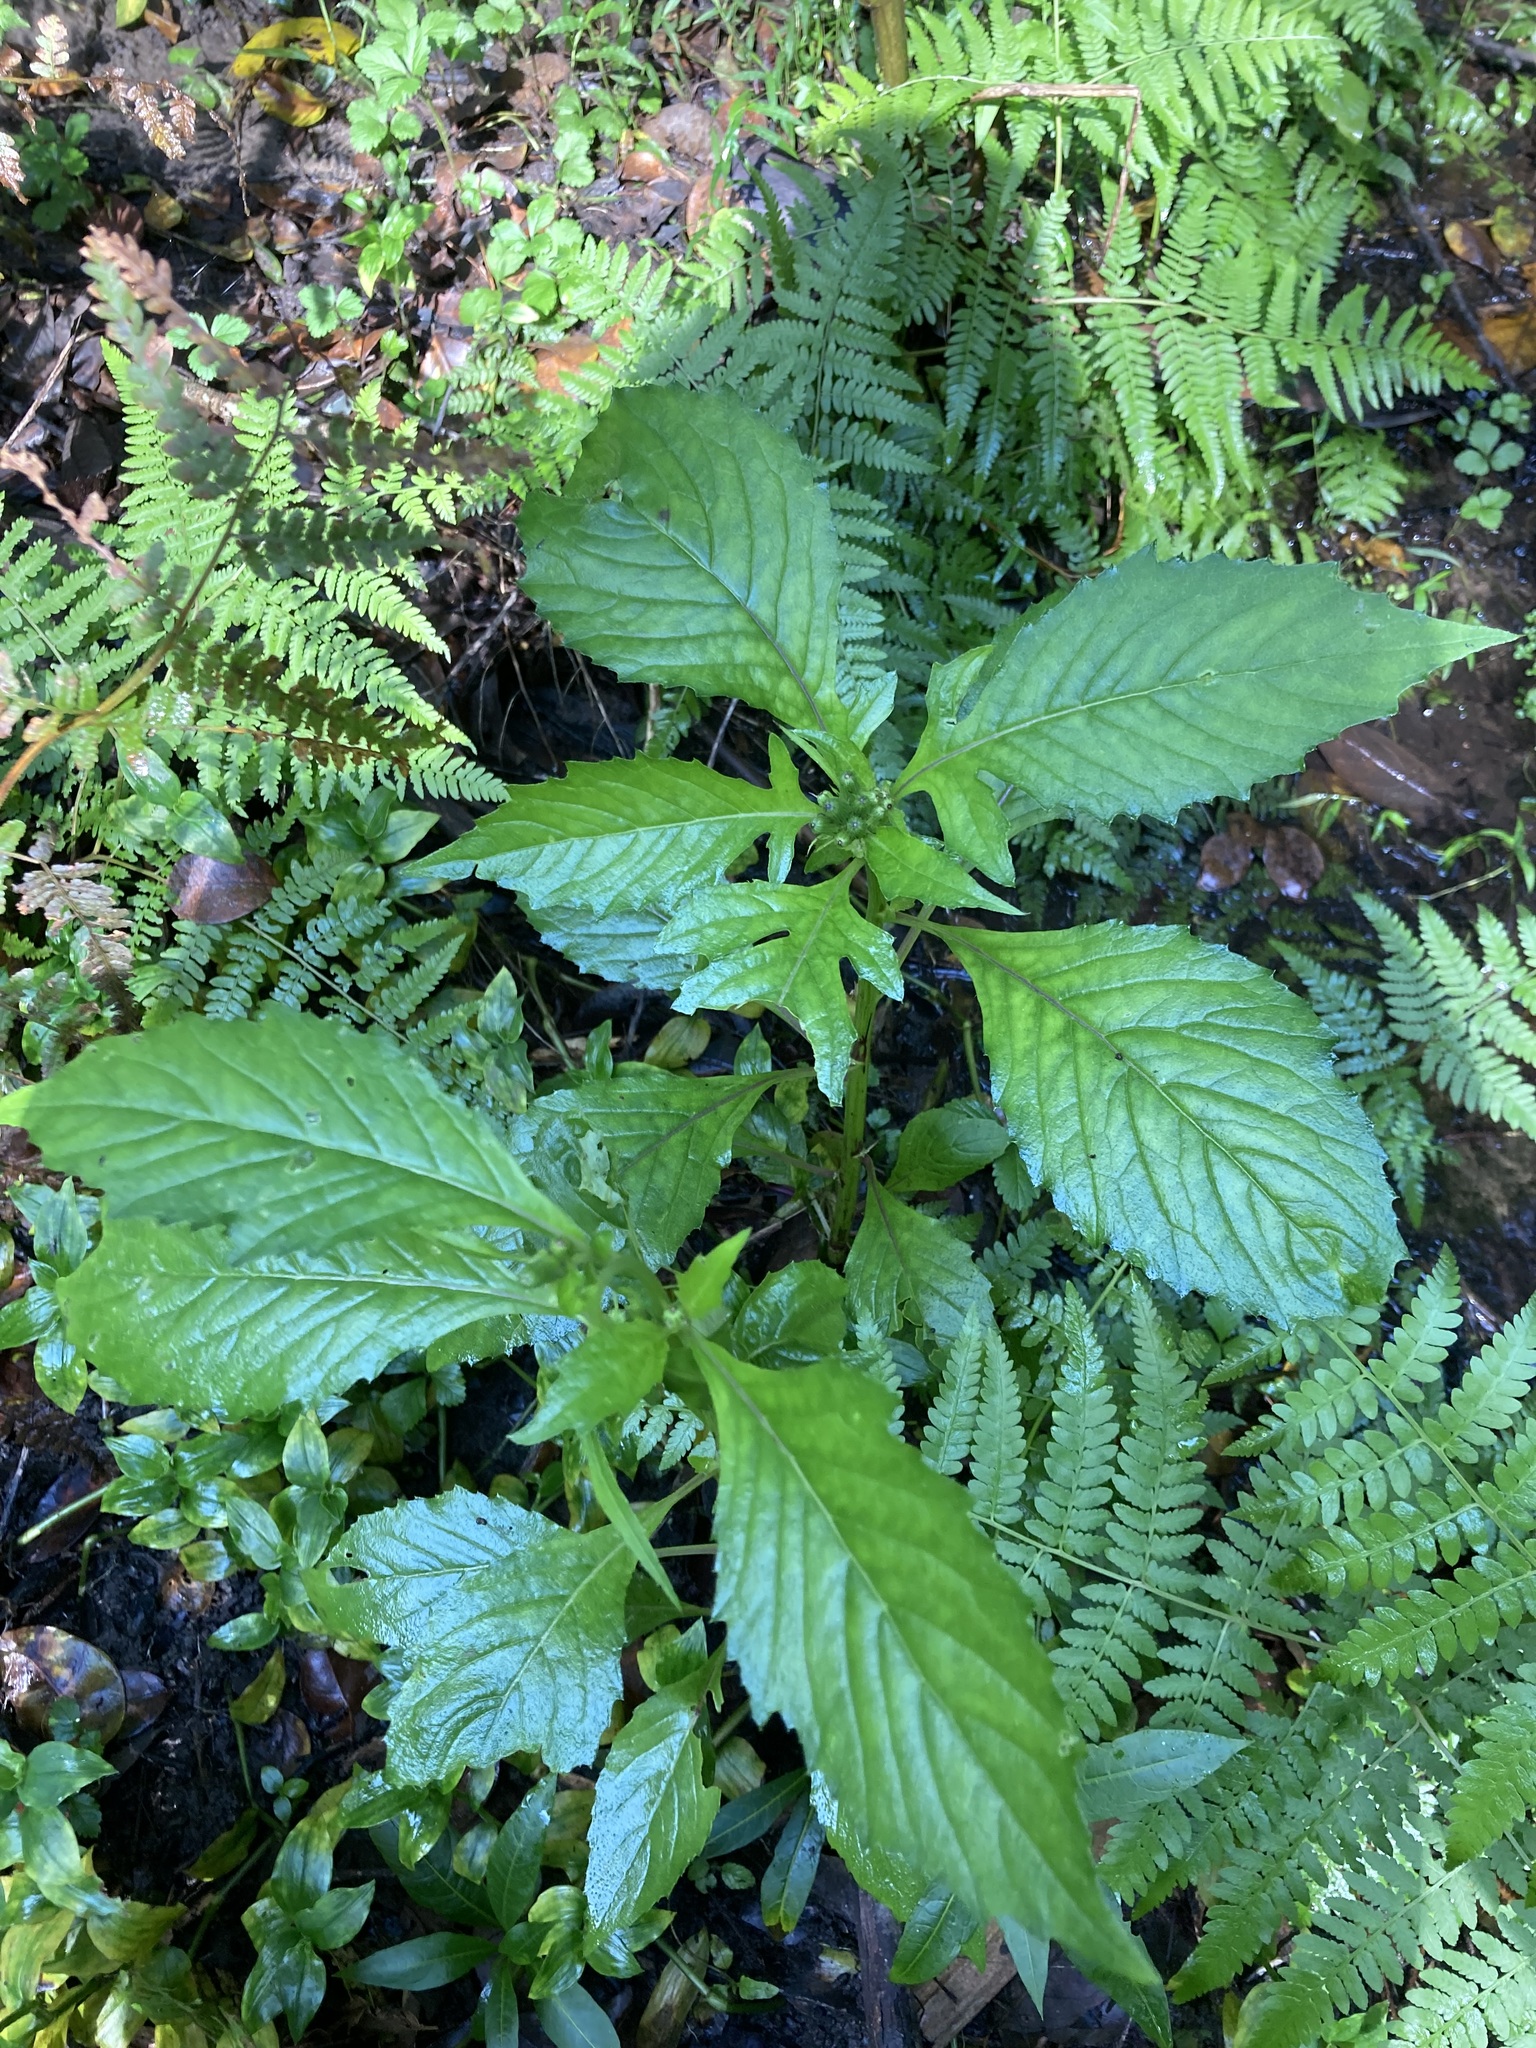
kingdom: Plantae
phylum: Tracheophyta
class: Magnoliopsida
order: Asterales
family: Asteraceae
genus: Crassocephalum
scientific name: Crassocephalum crepidioides
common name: Redflower ragleaf
